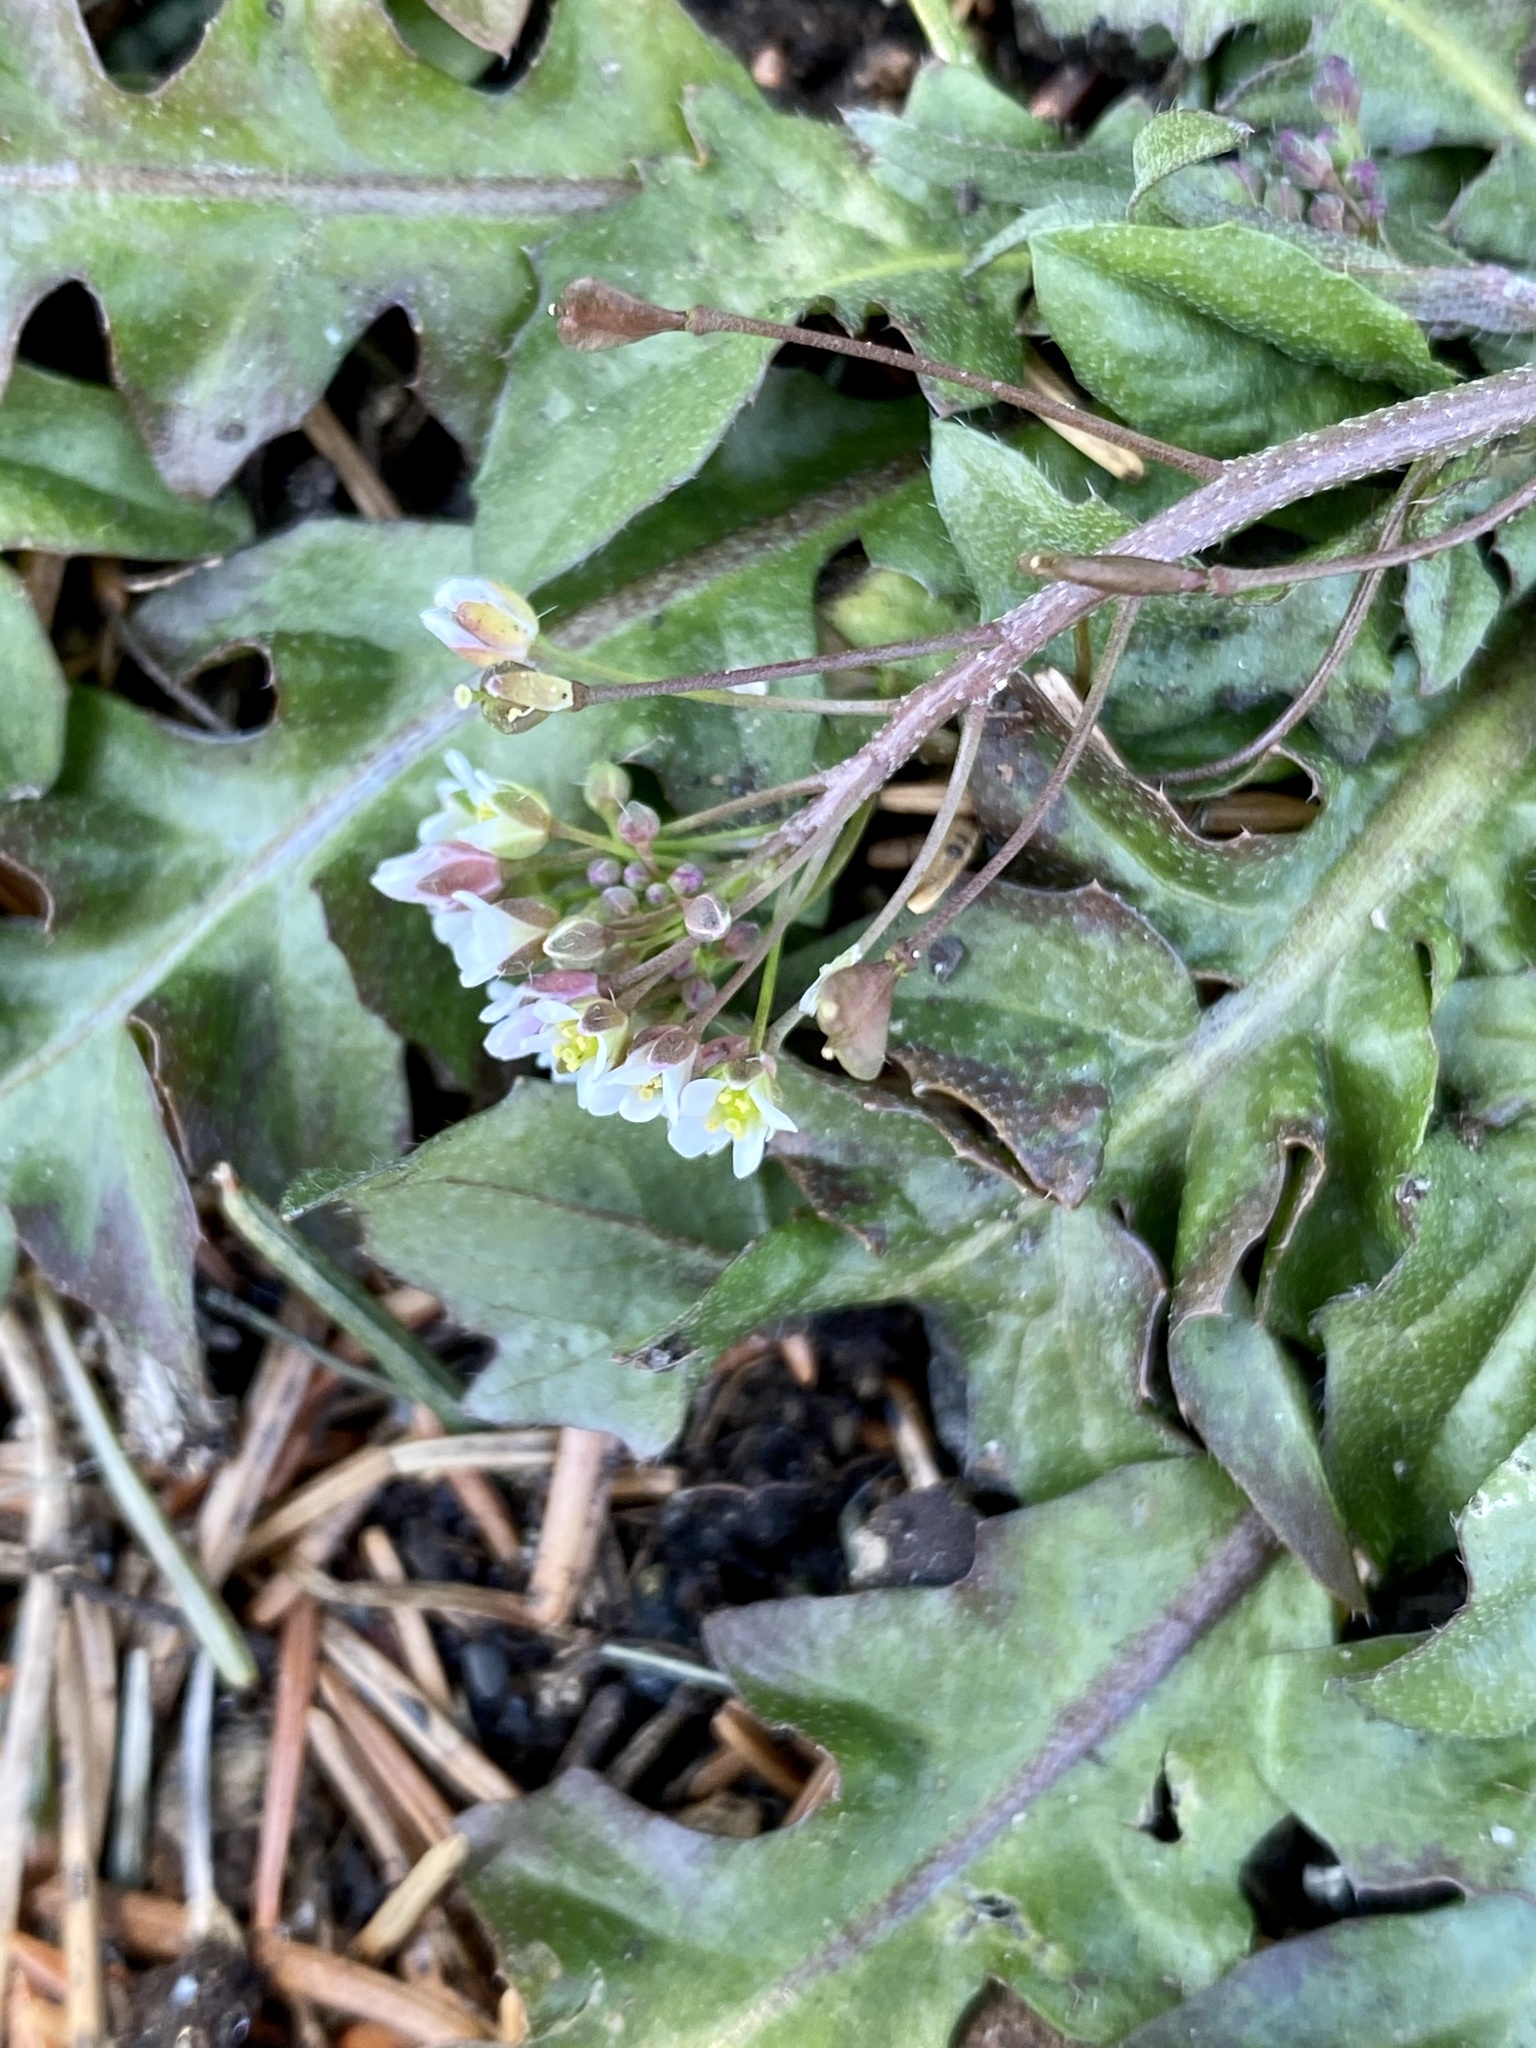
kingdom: Plantae
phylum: Tracheophyta
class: Magnoliopsida
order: Brassicales
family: Brassicaceae
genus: Capsella
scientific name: Capsella bursa-pastoris
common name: Shepherd's purse
